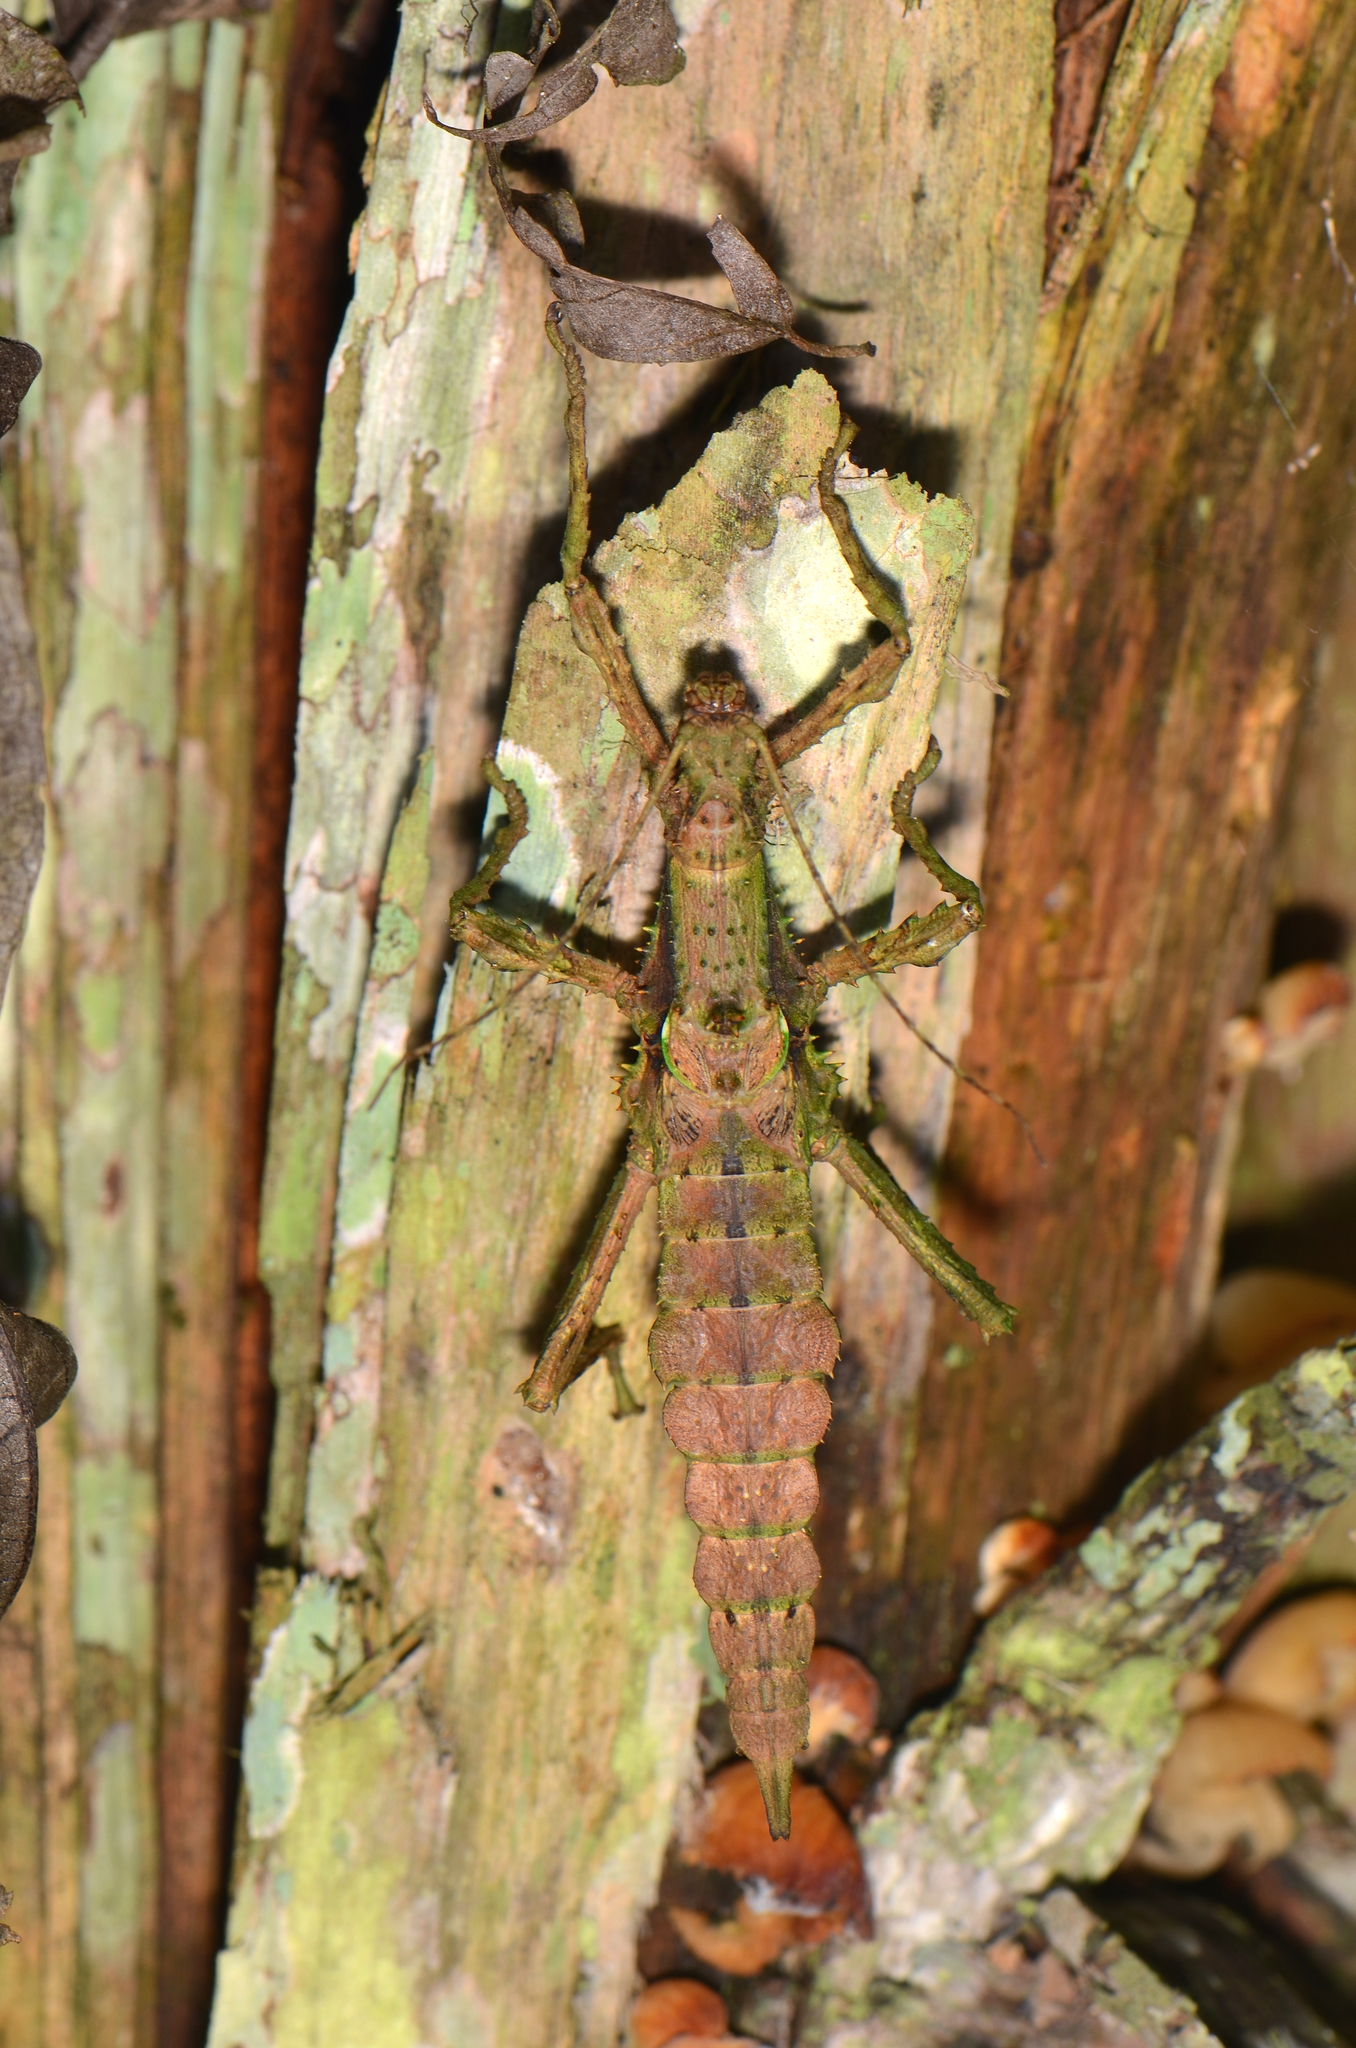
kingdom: Animalia
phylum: Arthropoda
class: Insecta
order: Phasmida
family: Heteropterygidae
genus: Haaniella
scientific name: Haaniella azlini
